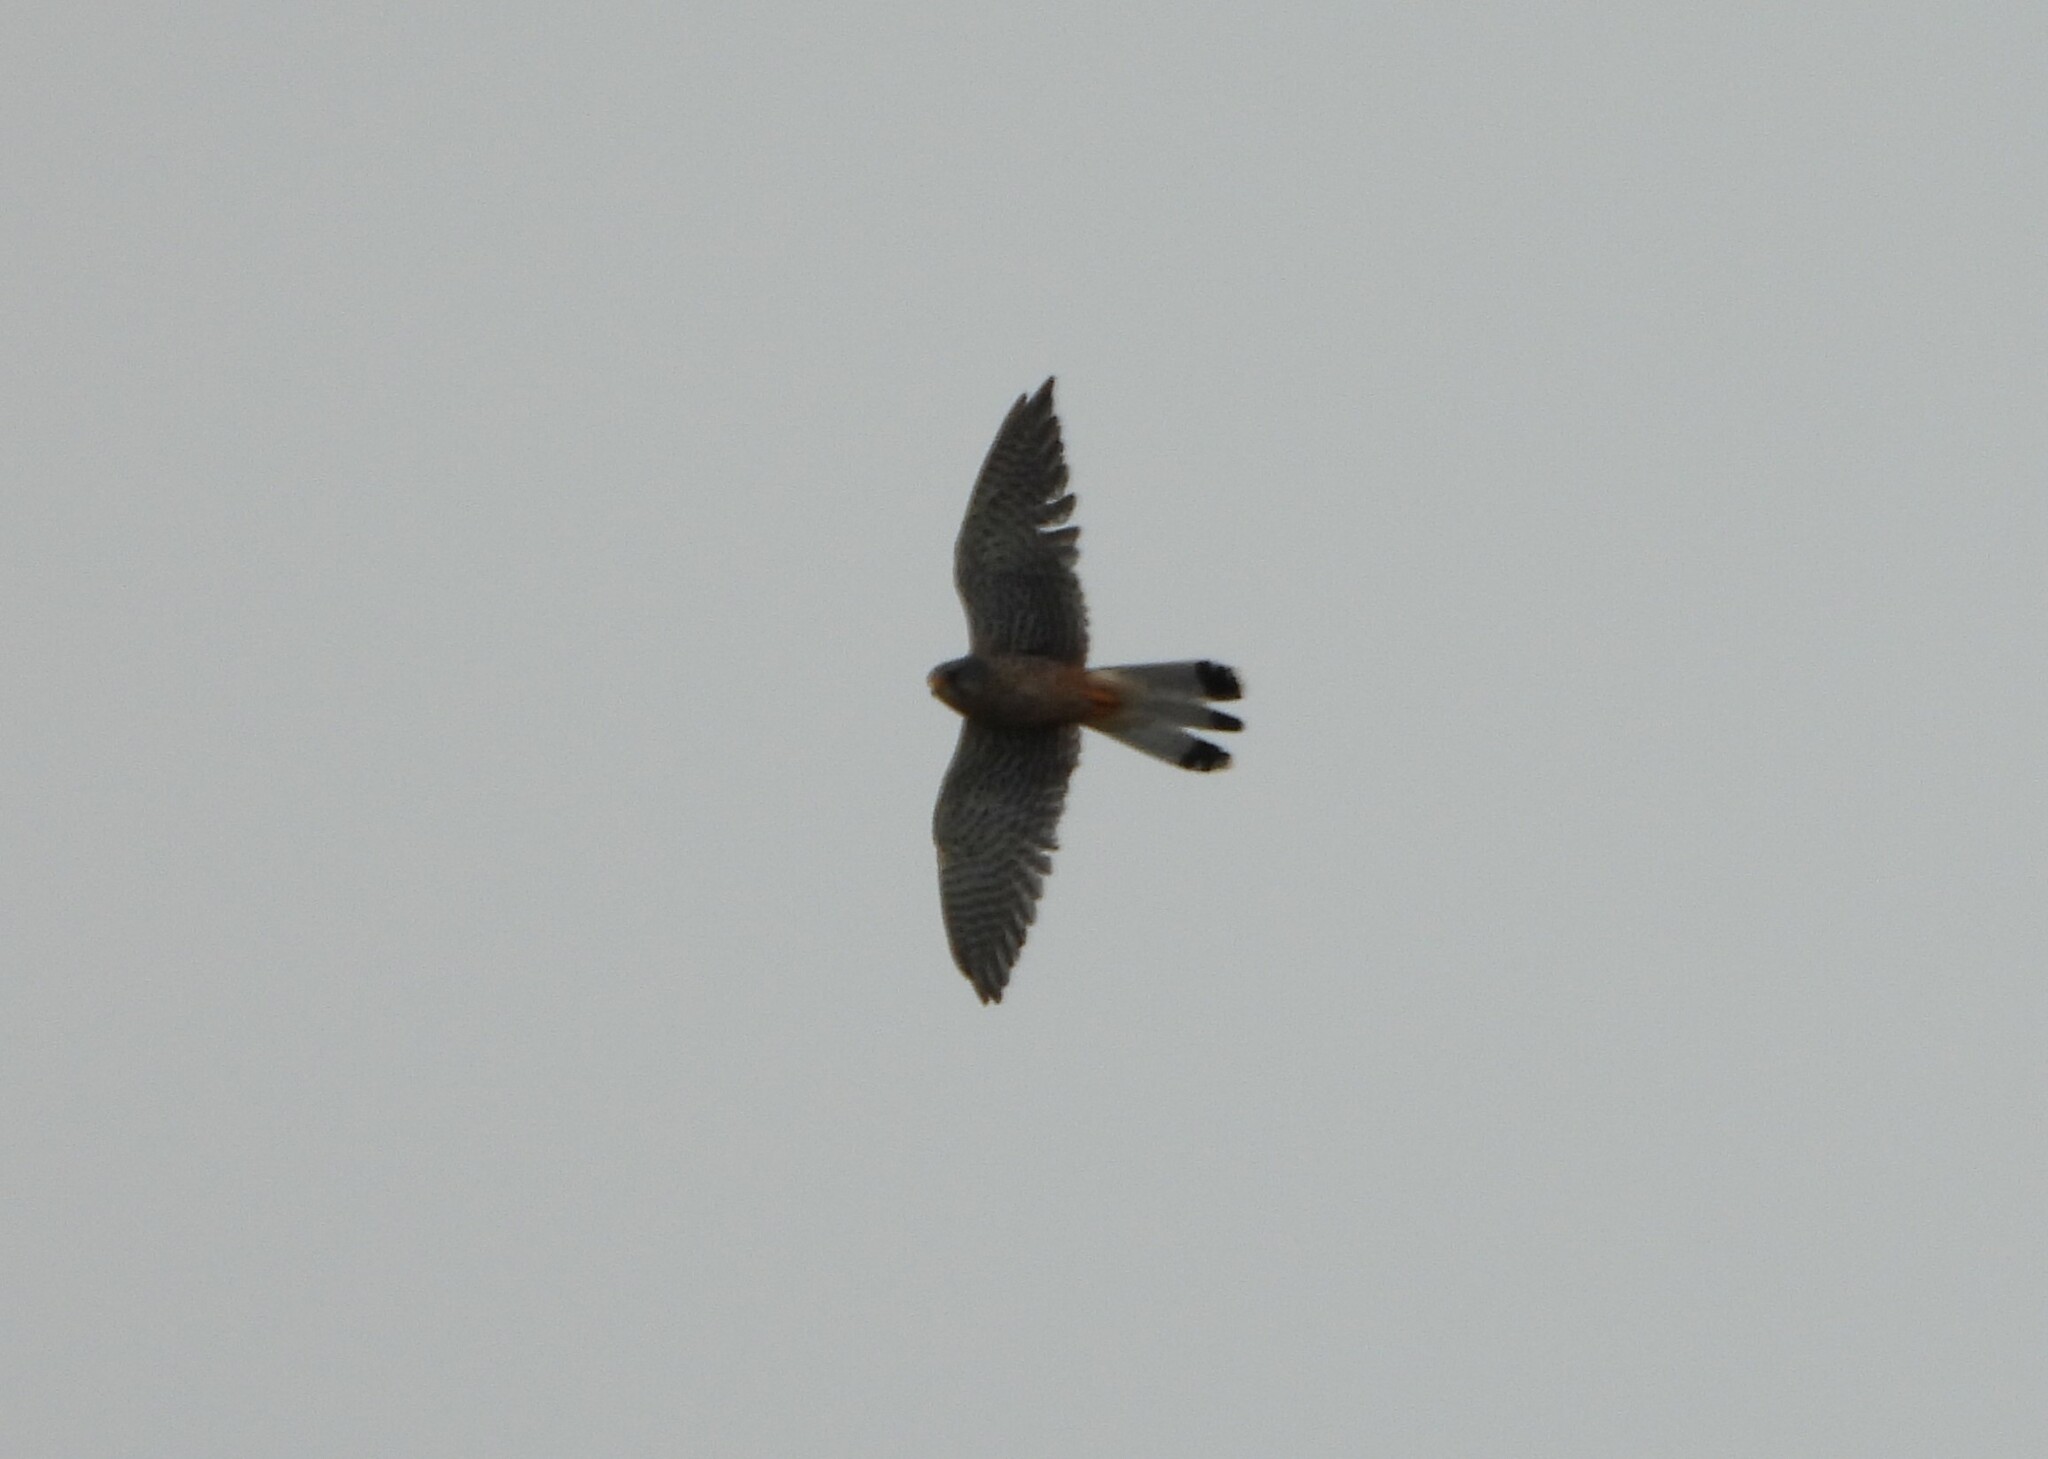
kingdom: Animalia
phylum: Chordata
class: Aves
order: Falconiformes
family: Falconidae
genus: Falco
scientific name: Falco tinnunculus
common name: Common kestrel
